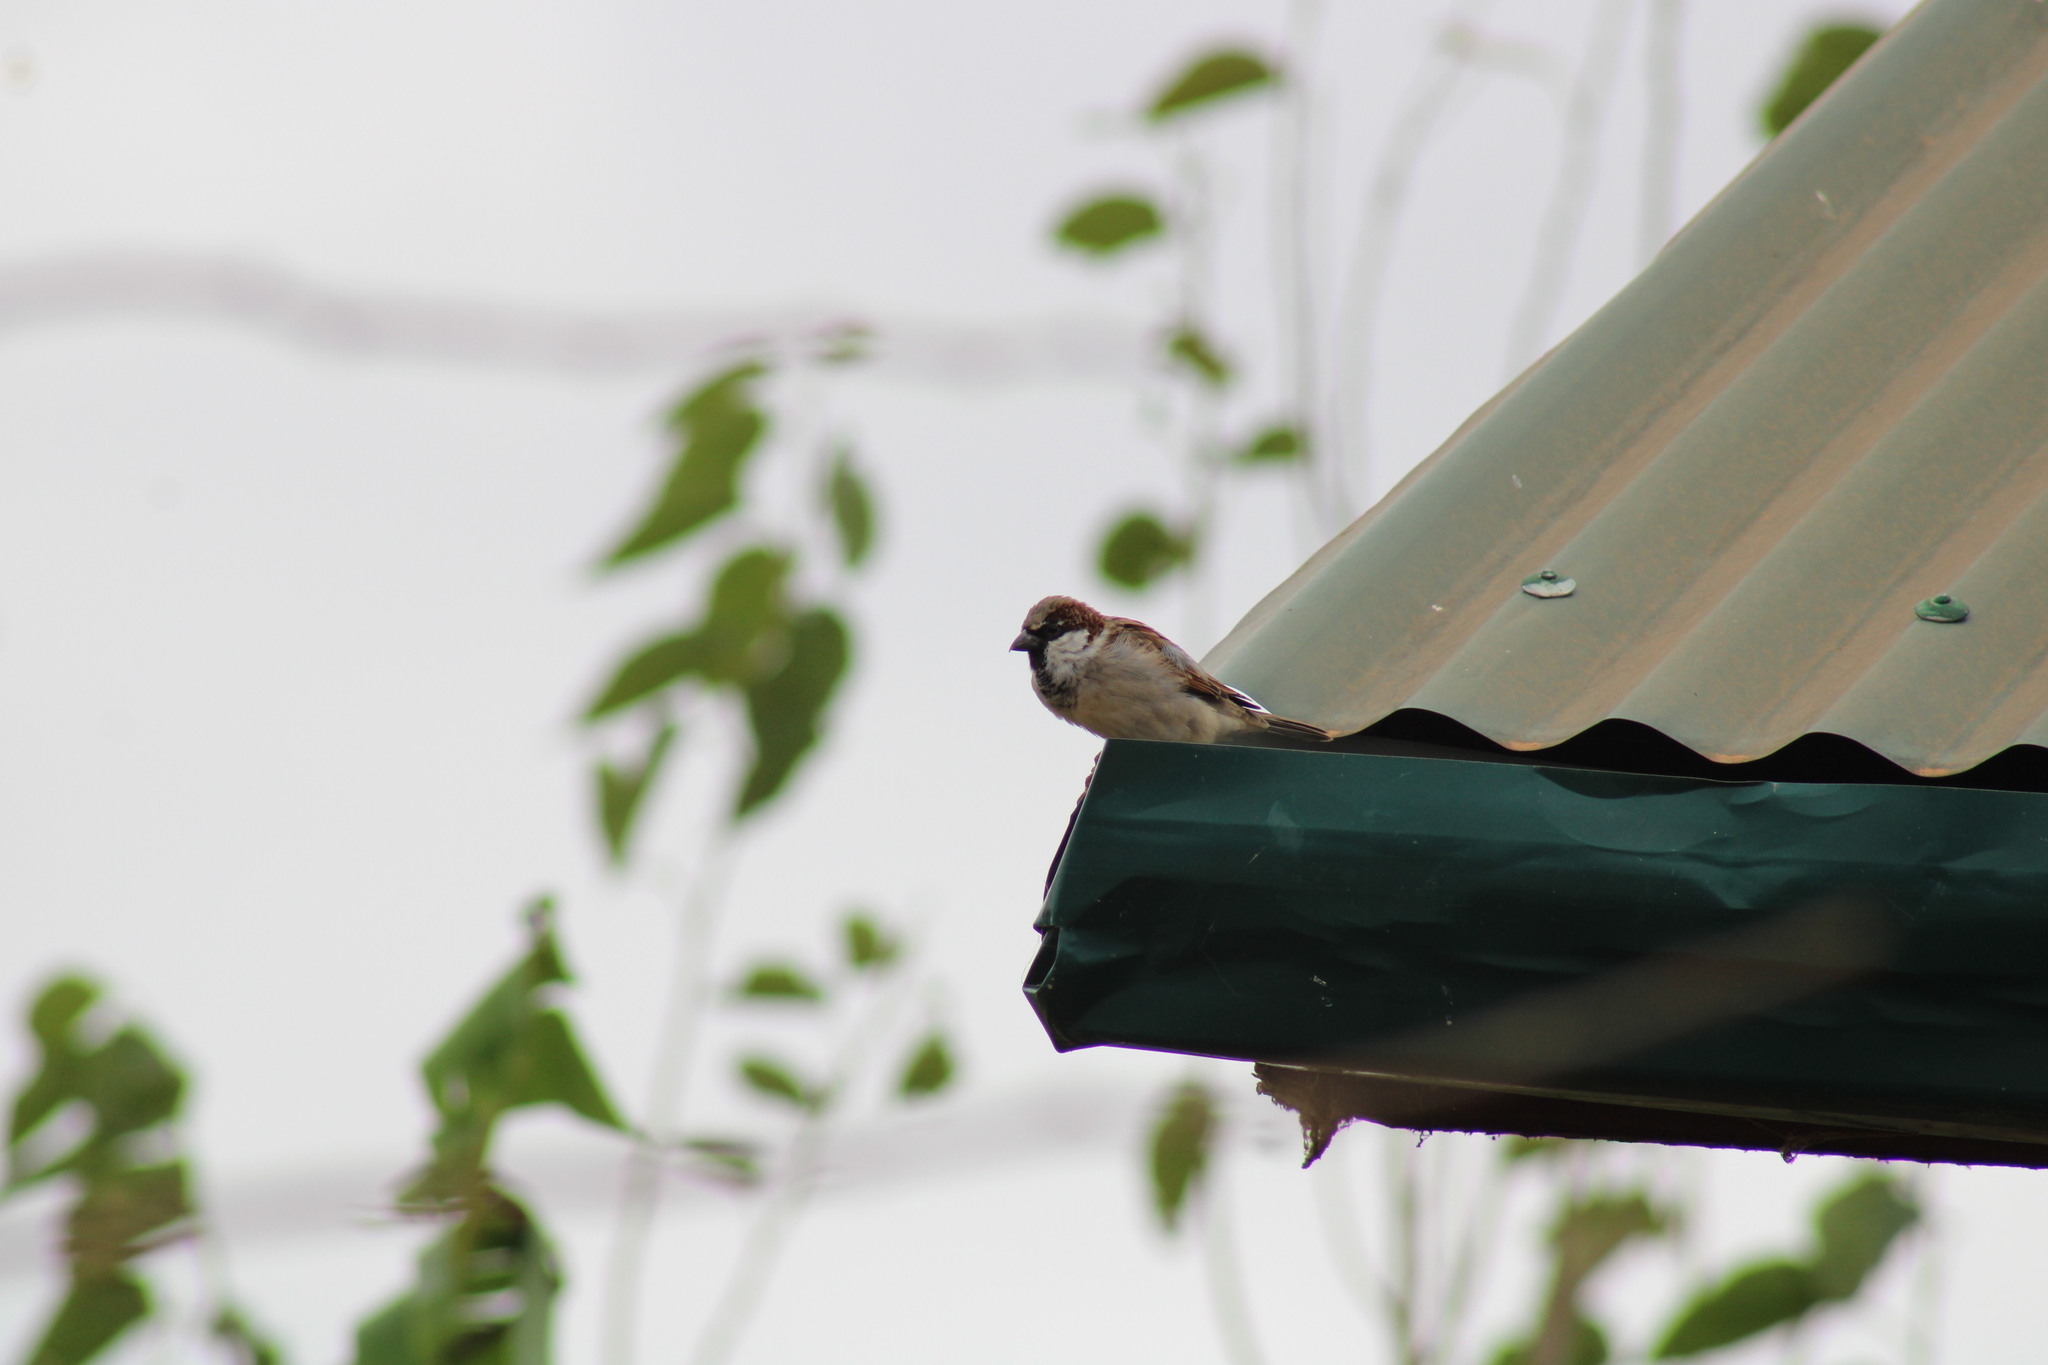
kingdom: Animalia
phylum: Chordata
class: Aves
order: Passeriformes
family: Passeridae
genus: Passer
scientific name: Passer domesticus
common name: House sparrow
